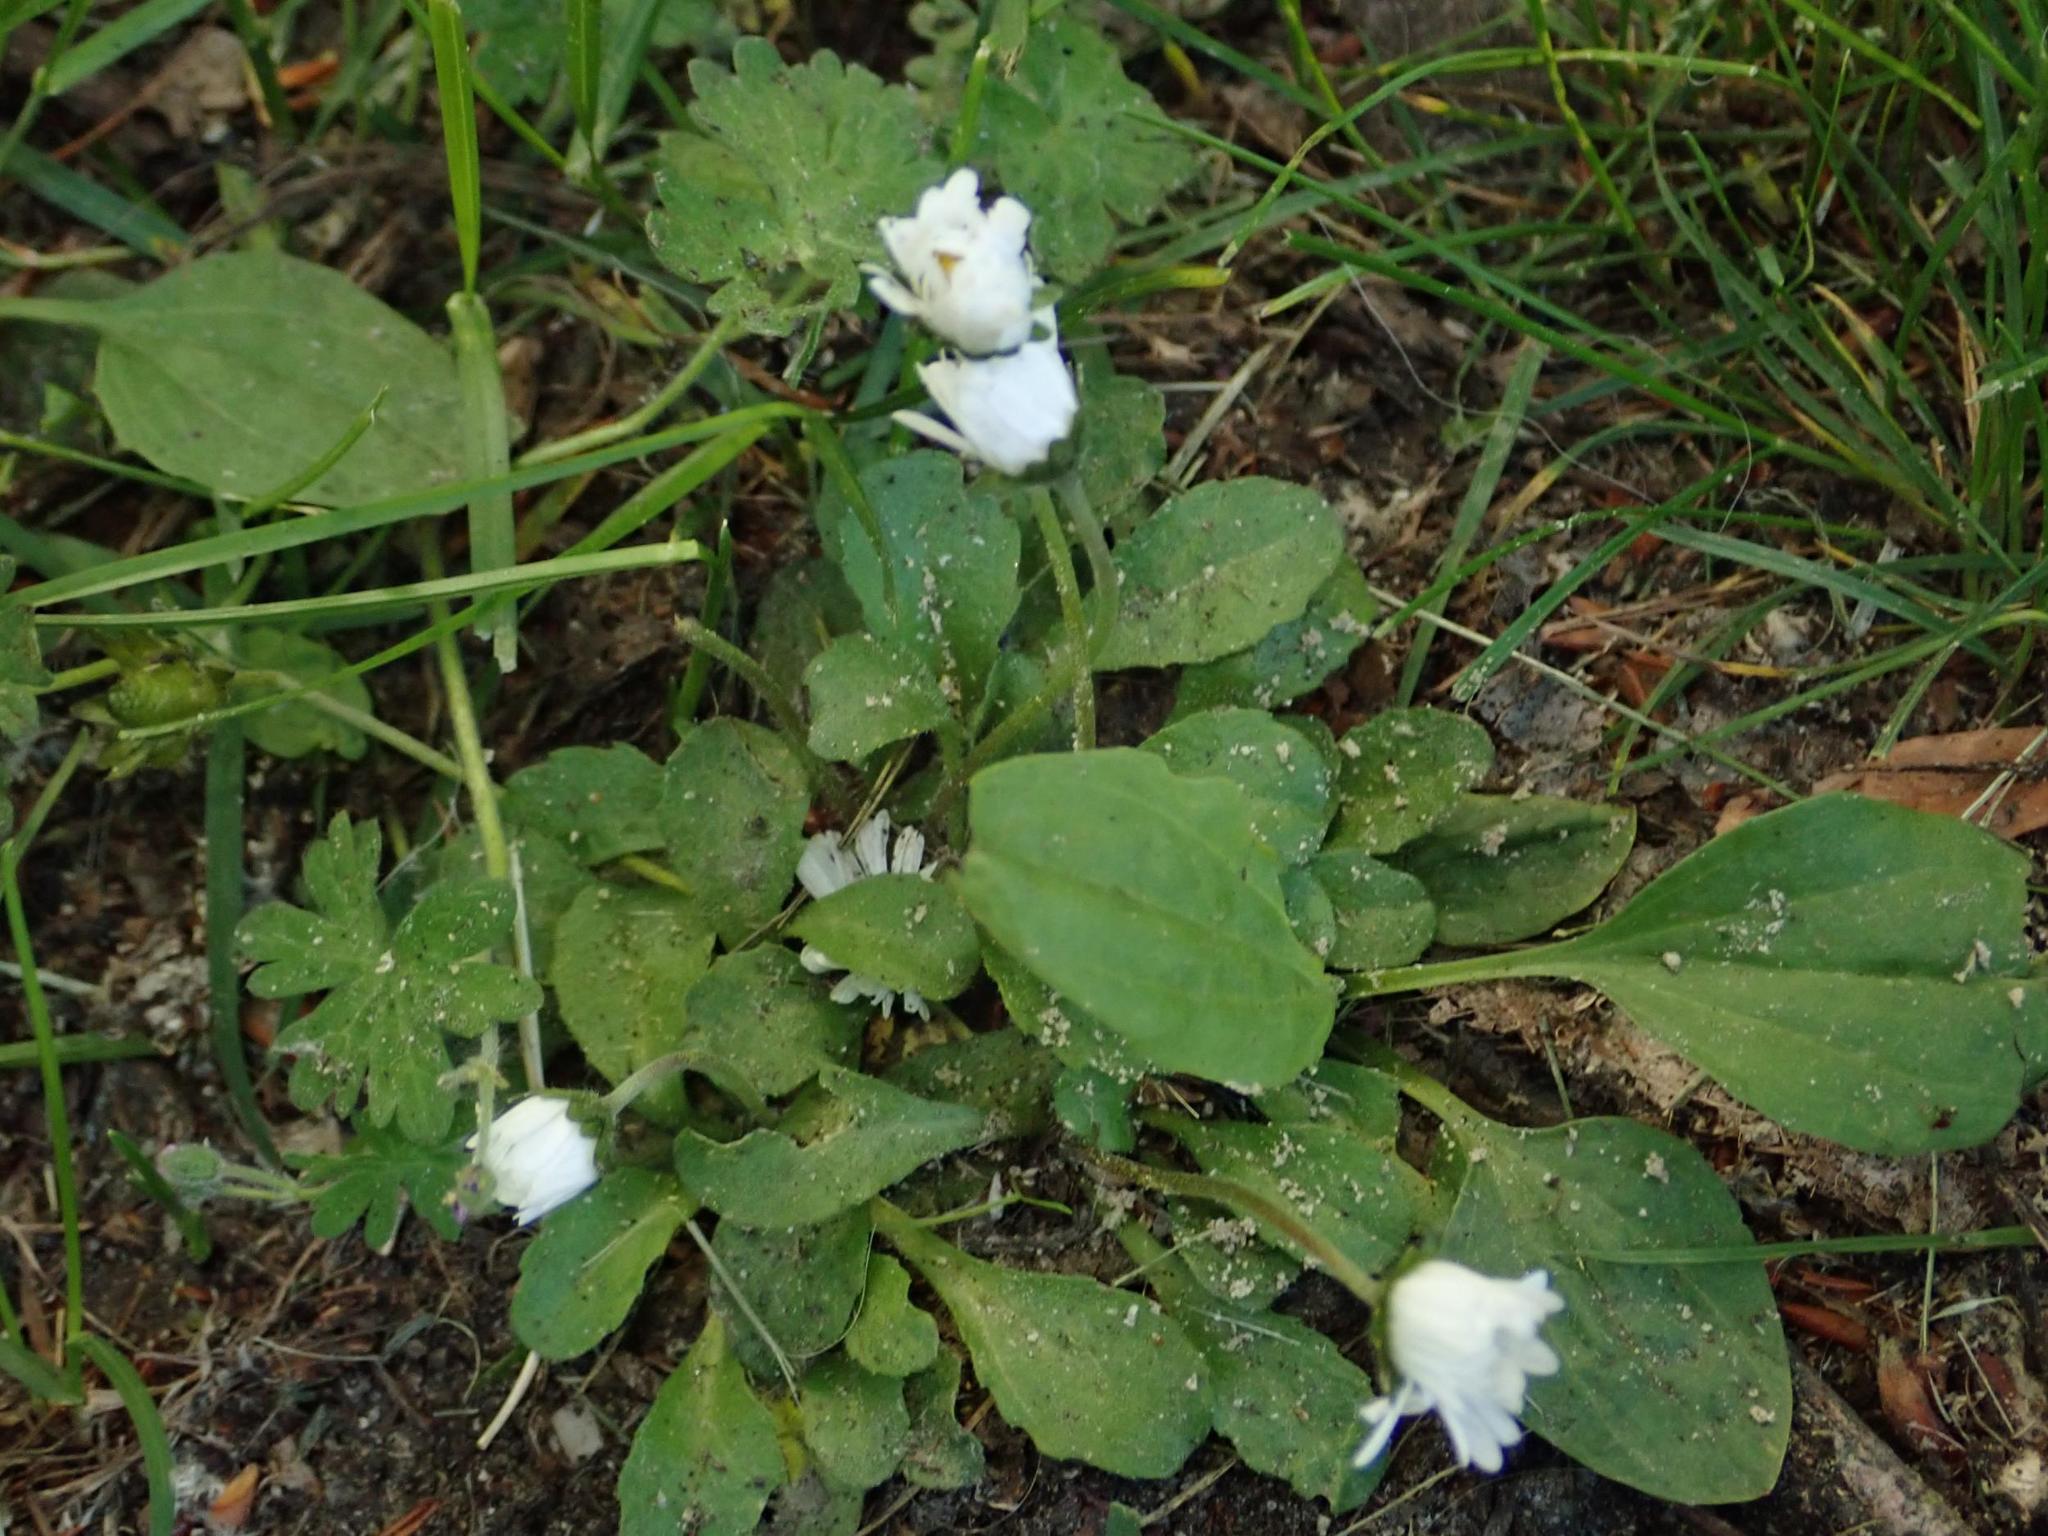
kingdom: Plantae
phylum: Tracheophyta
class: Magnoliopsida
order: Asterales
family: Asteraceae
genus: Bellis
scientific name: Bellis perennis
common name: Lawndaisy
